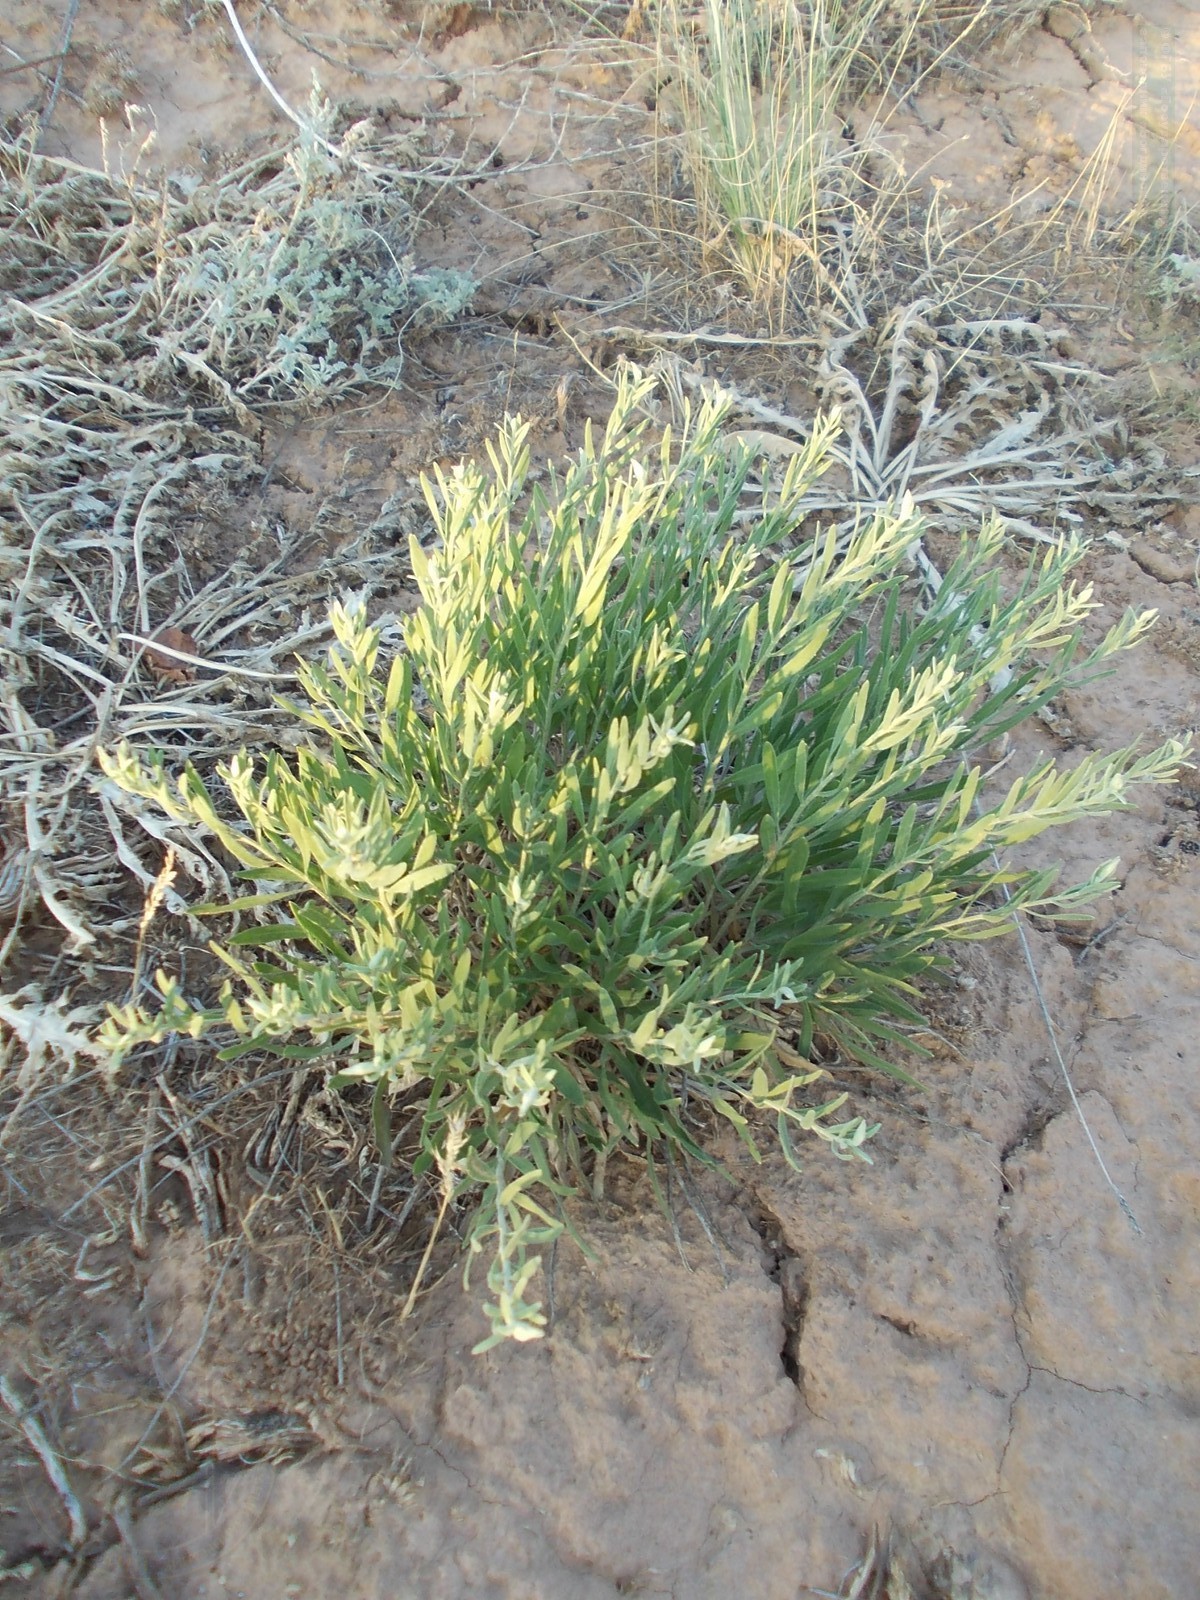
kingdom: Plantae
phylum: Tracheophyta
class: Magnoliopsida
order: Asterales
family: Asteraceae
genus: Galatella
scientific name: Galatella sedifolia
